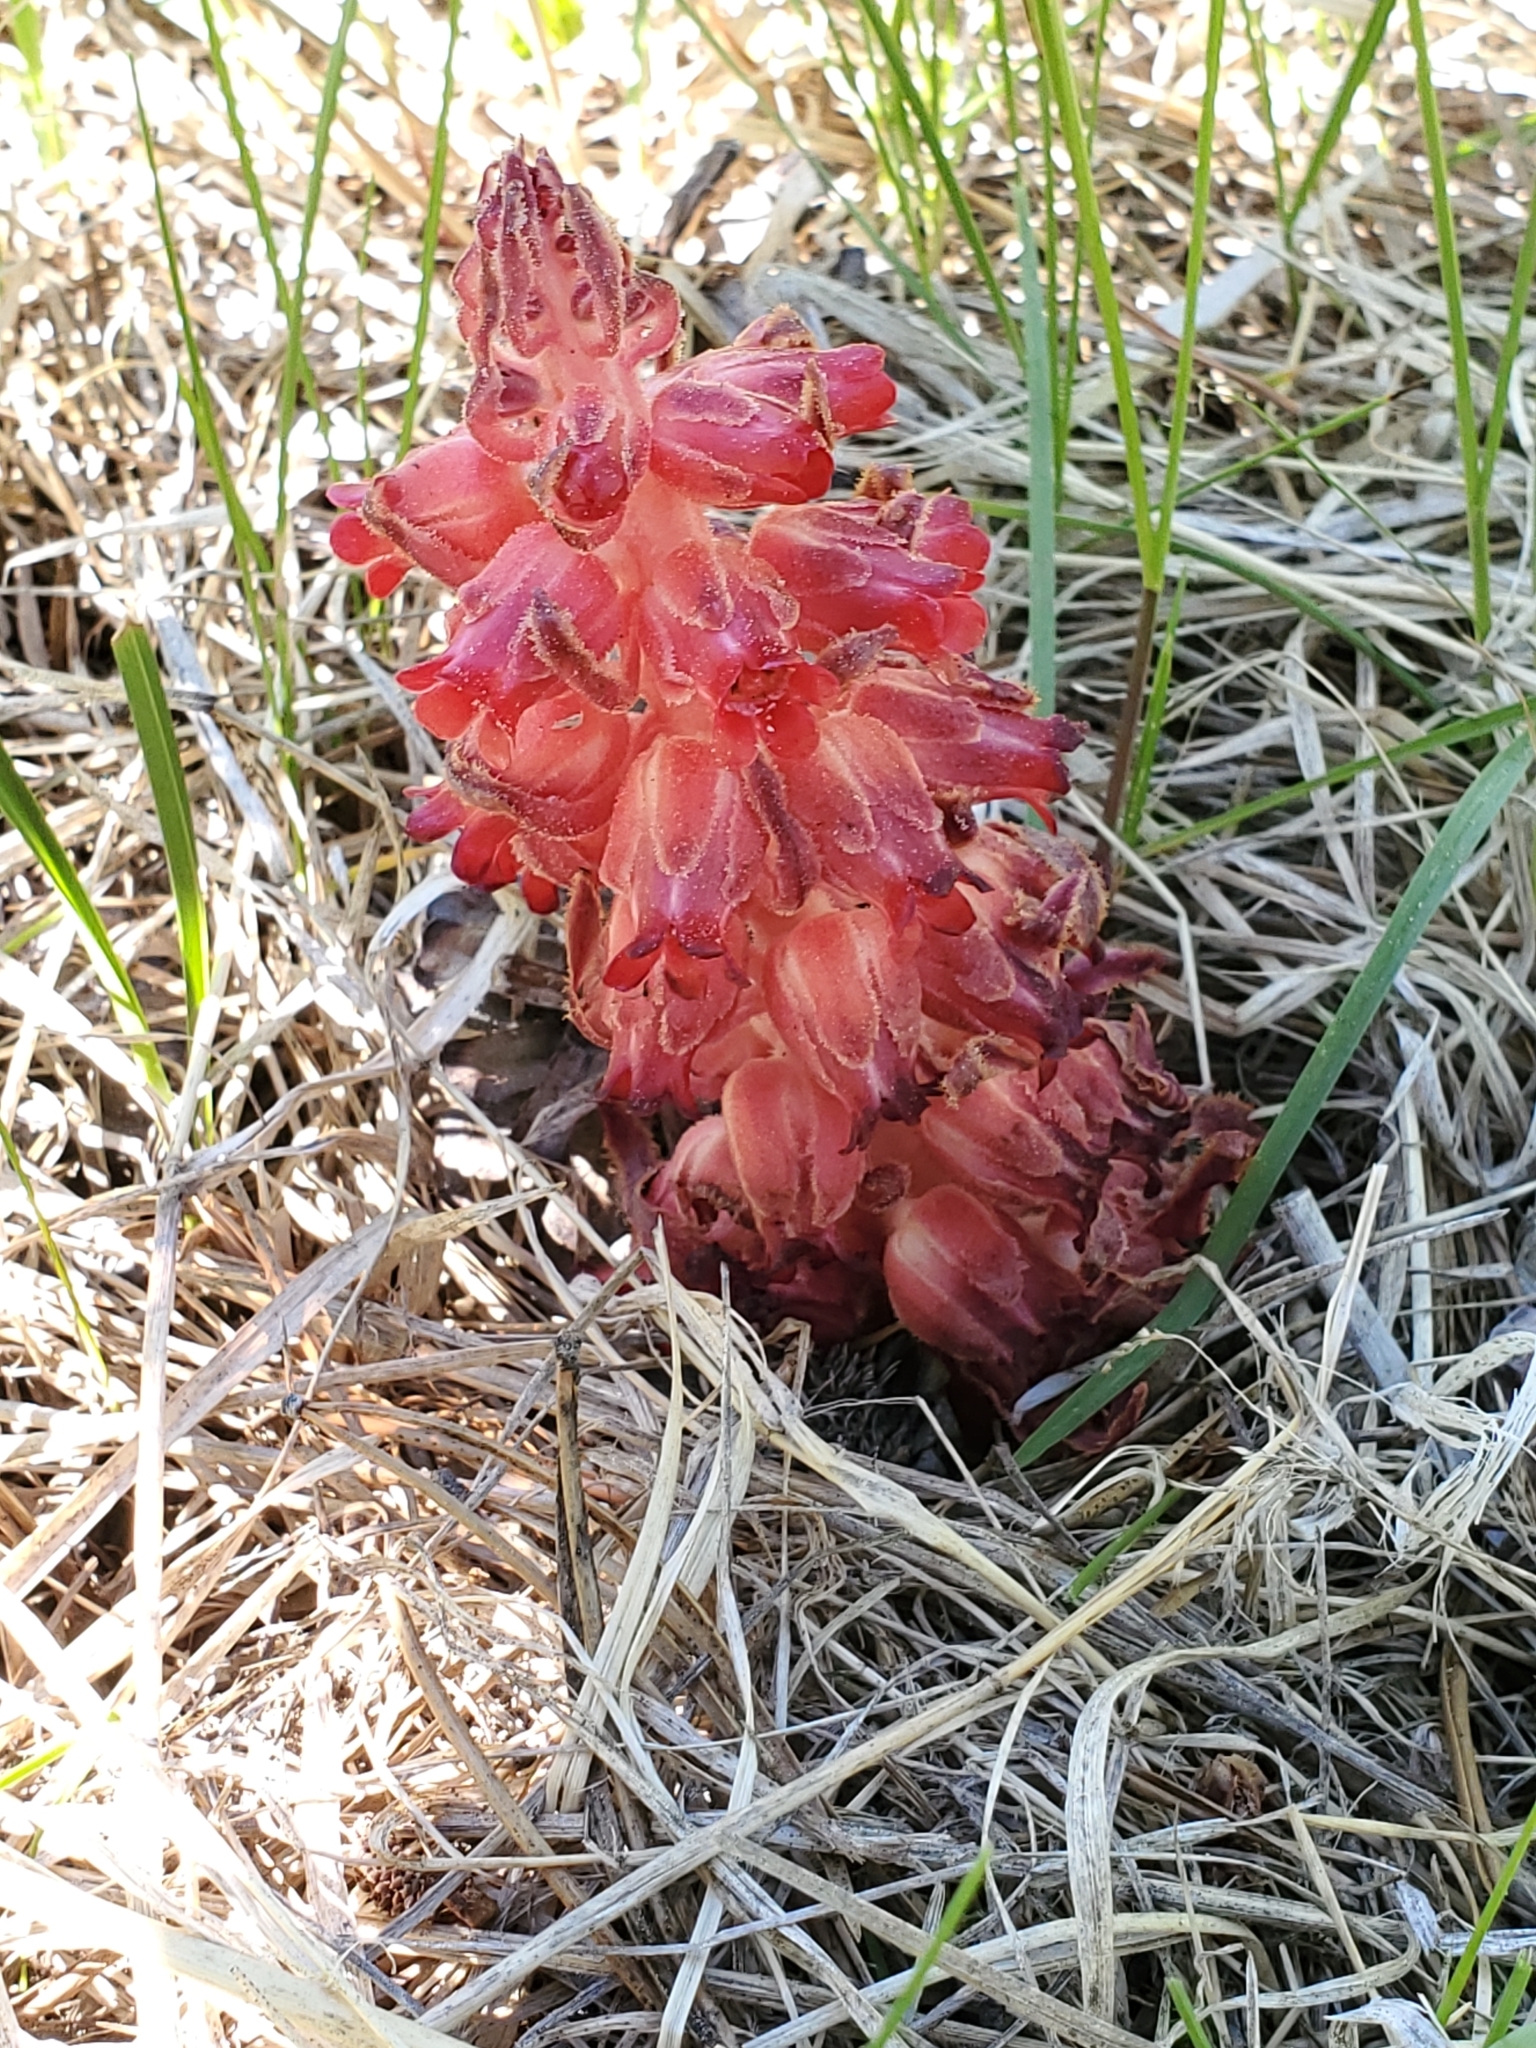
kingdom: Plantae
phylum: Tracheophyta
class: Magnoliopsida
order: Ericales
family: Ericaceae
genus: Sarcodes
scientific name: Sarcodes sanguinea
